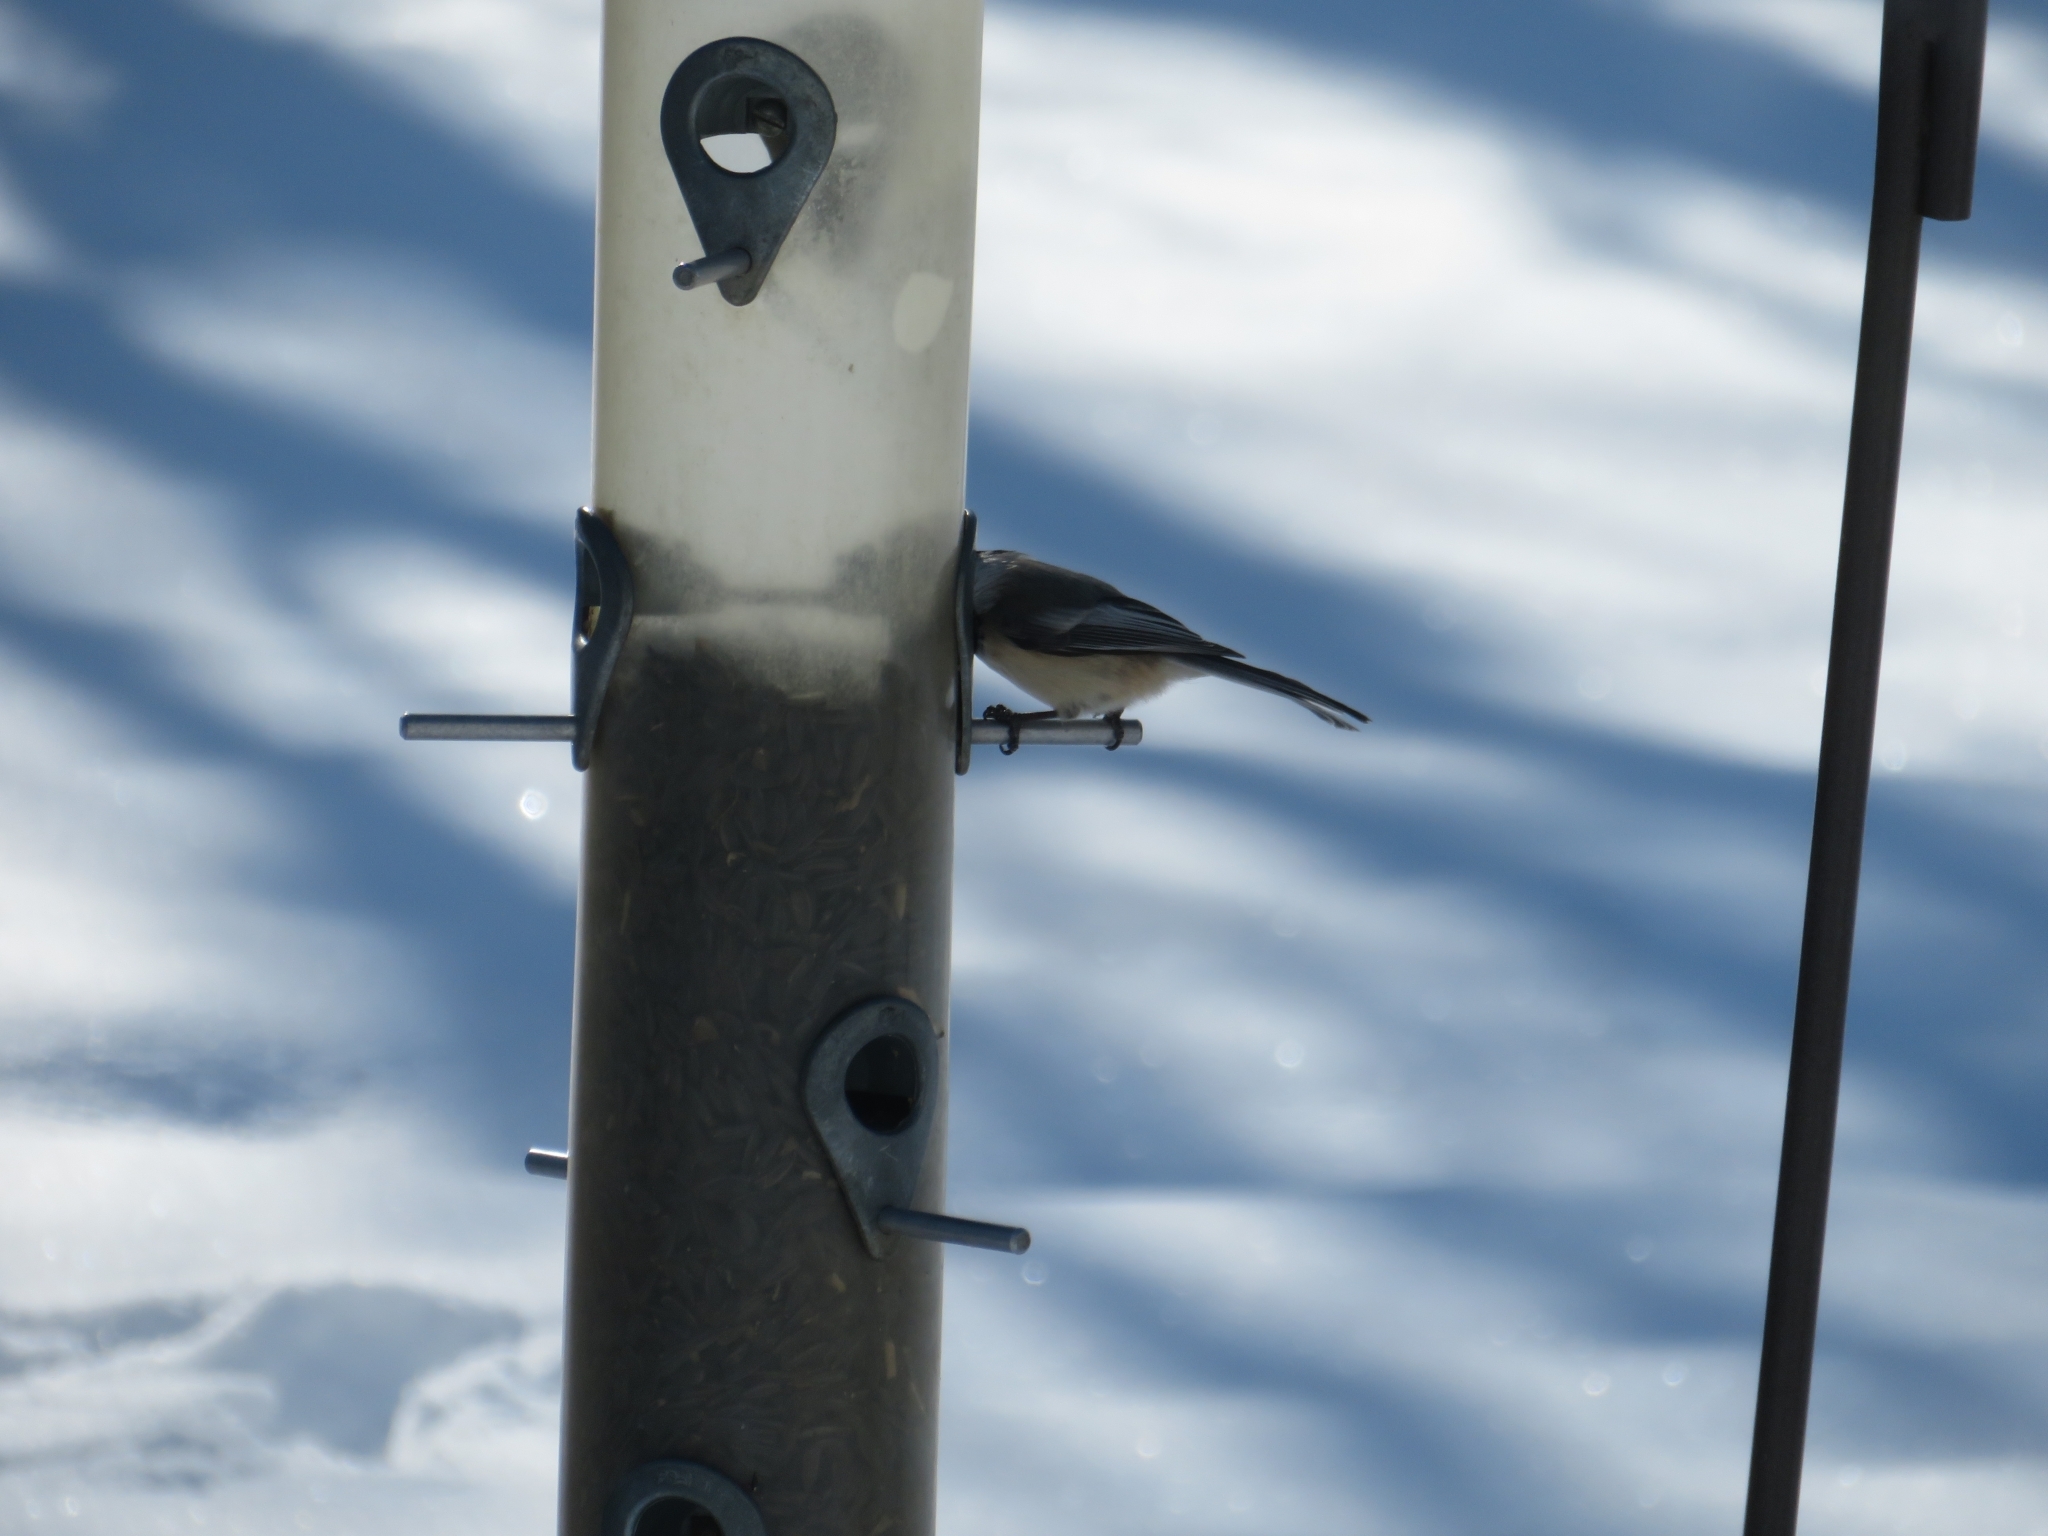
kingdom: Animalia
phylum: Chordata
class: Aves
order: Passeriformes
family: Paridae
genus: Poecile
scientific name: Poecile atricapillus
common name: Black-capped chickadee
